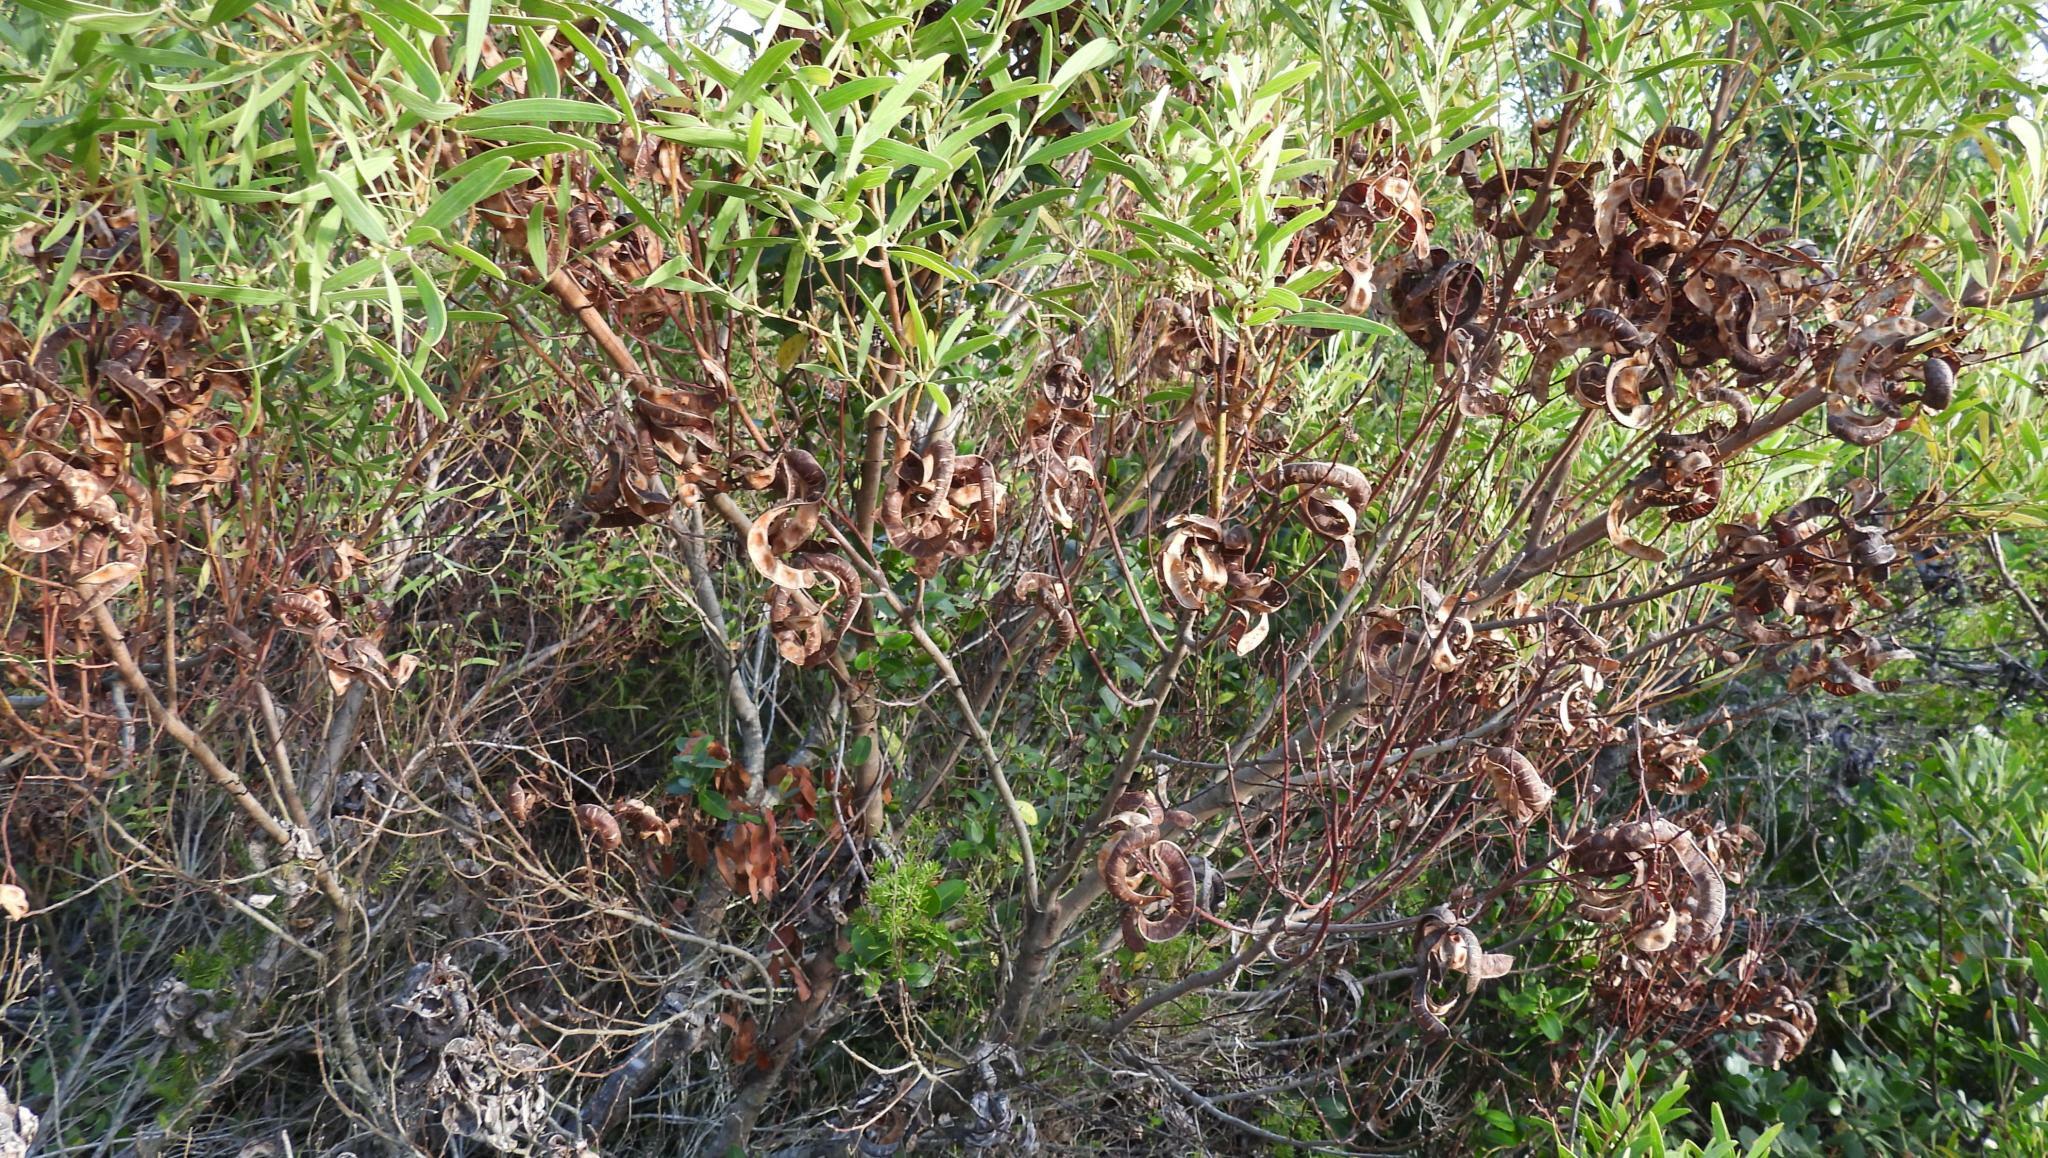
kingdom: Plantae
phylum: Tracheophyta
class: Magnoliopsida
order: Fabales
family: Fabaceae
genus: Acacia
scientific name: Acacia cyclops
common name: Coastal wattle
